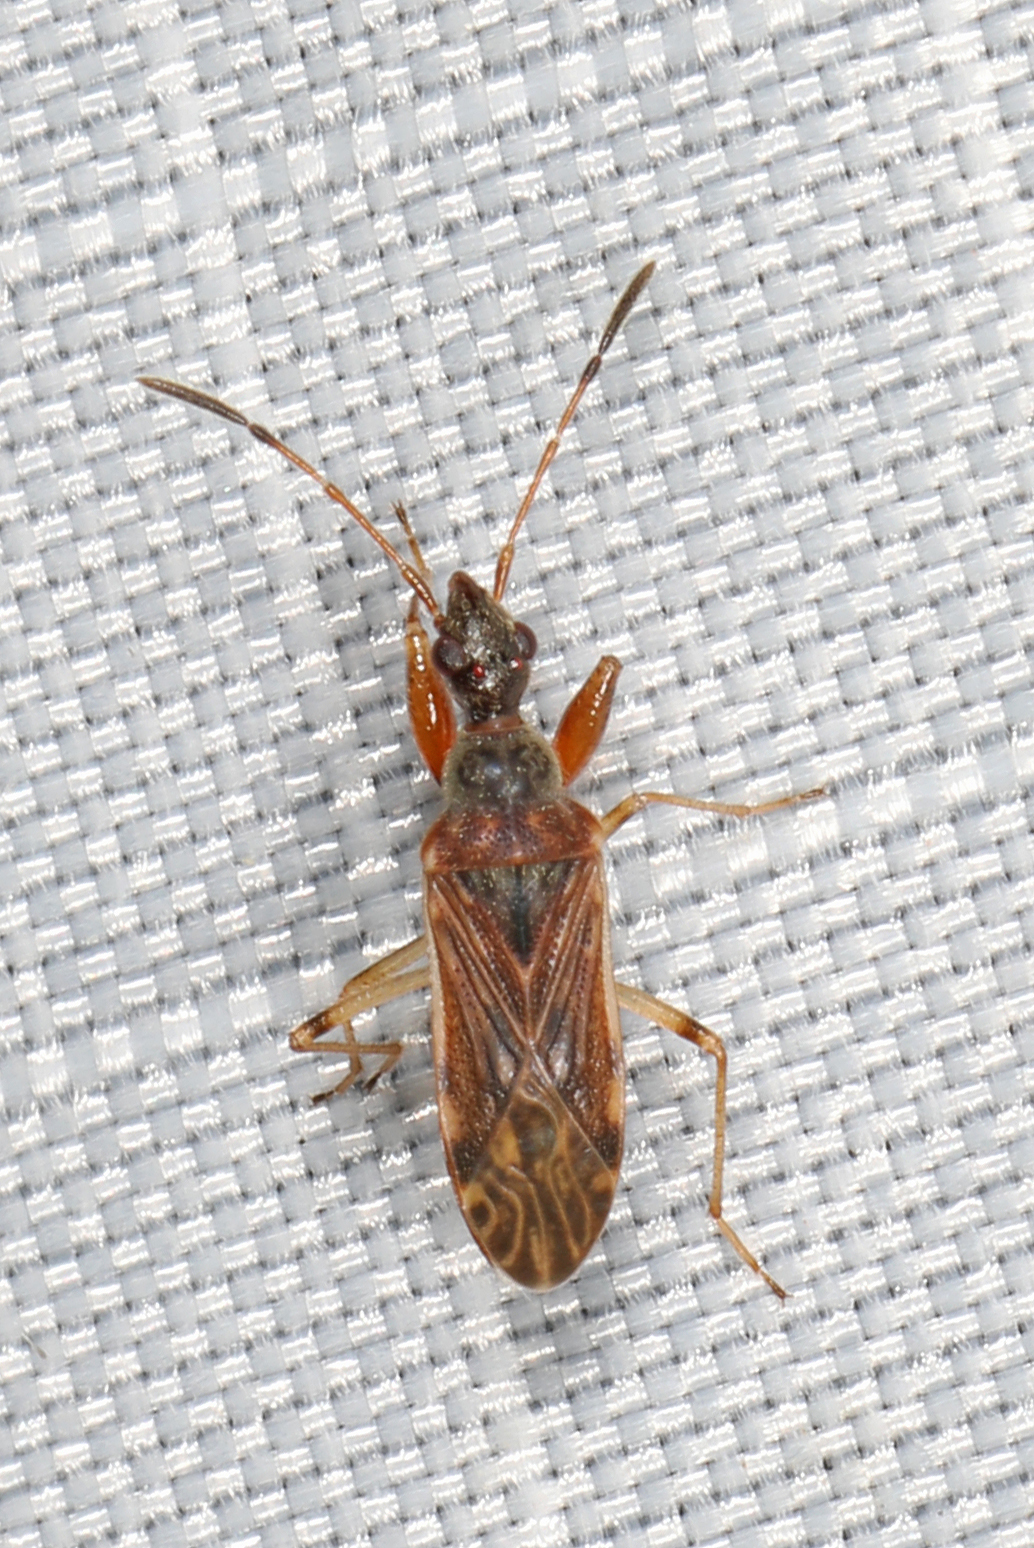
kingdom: Animalia
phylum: Arthropoda
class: Insecta
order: Hemiptera
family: Rhyparochromidae
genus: Heraeus
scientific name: Heraeus plebejus
